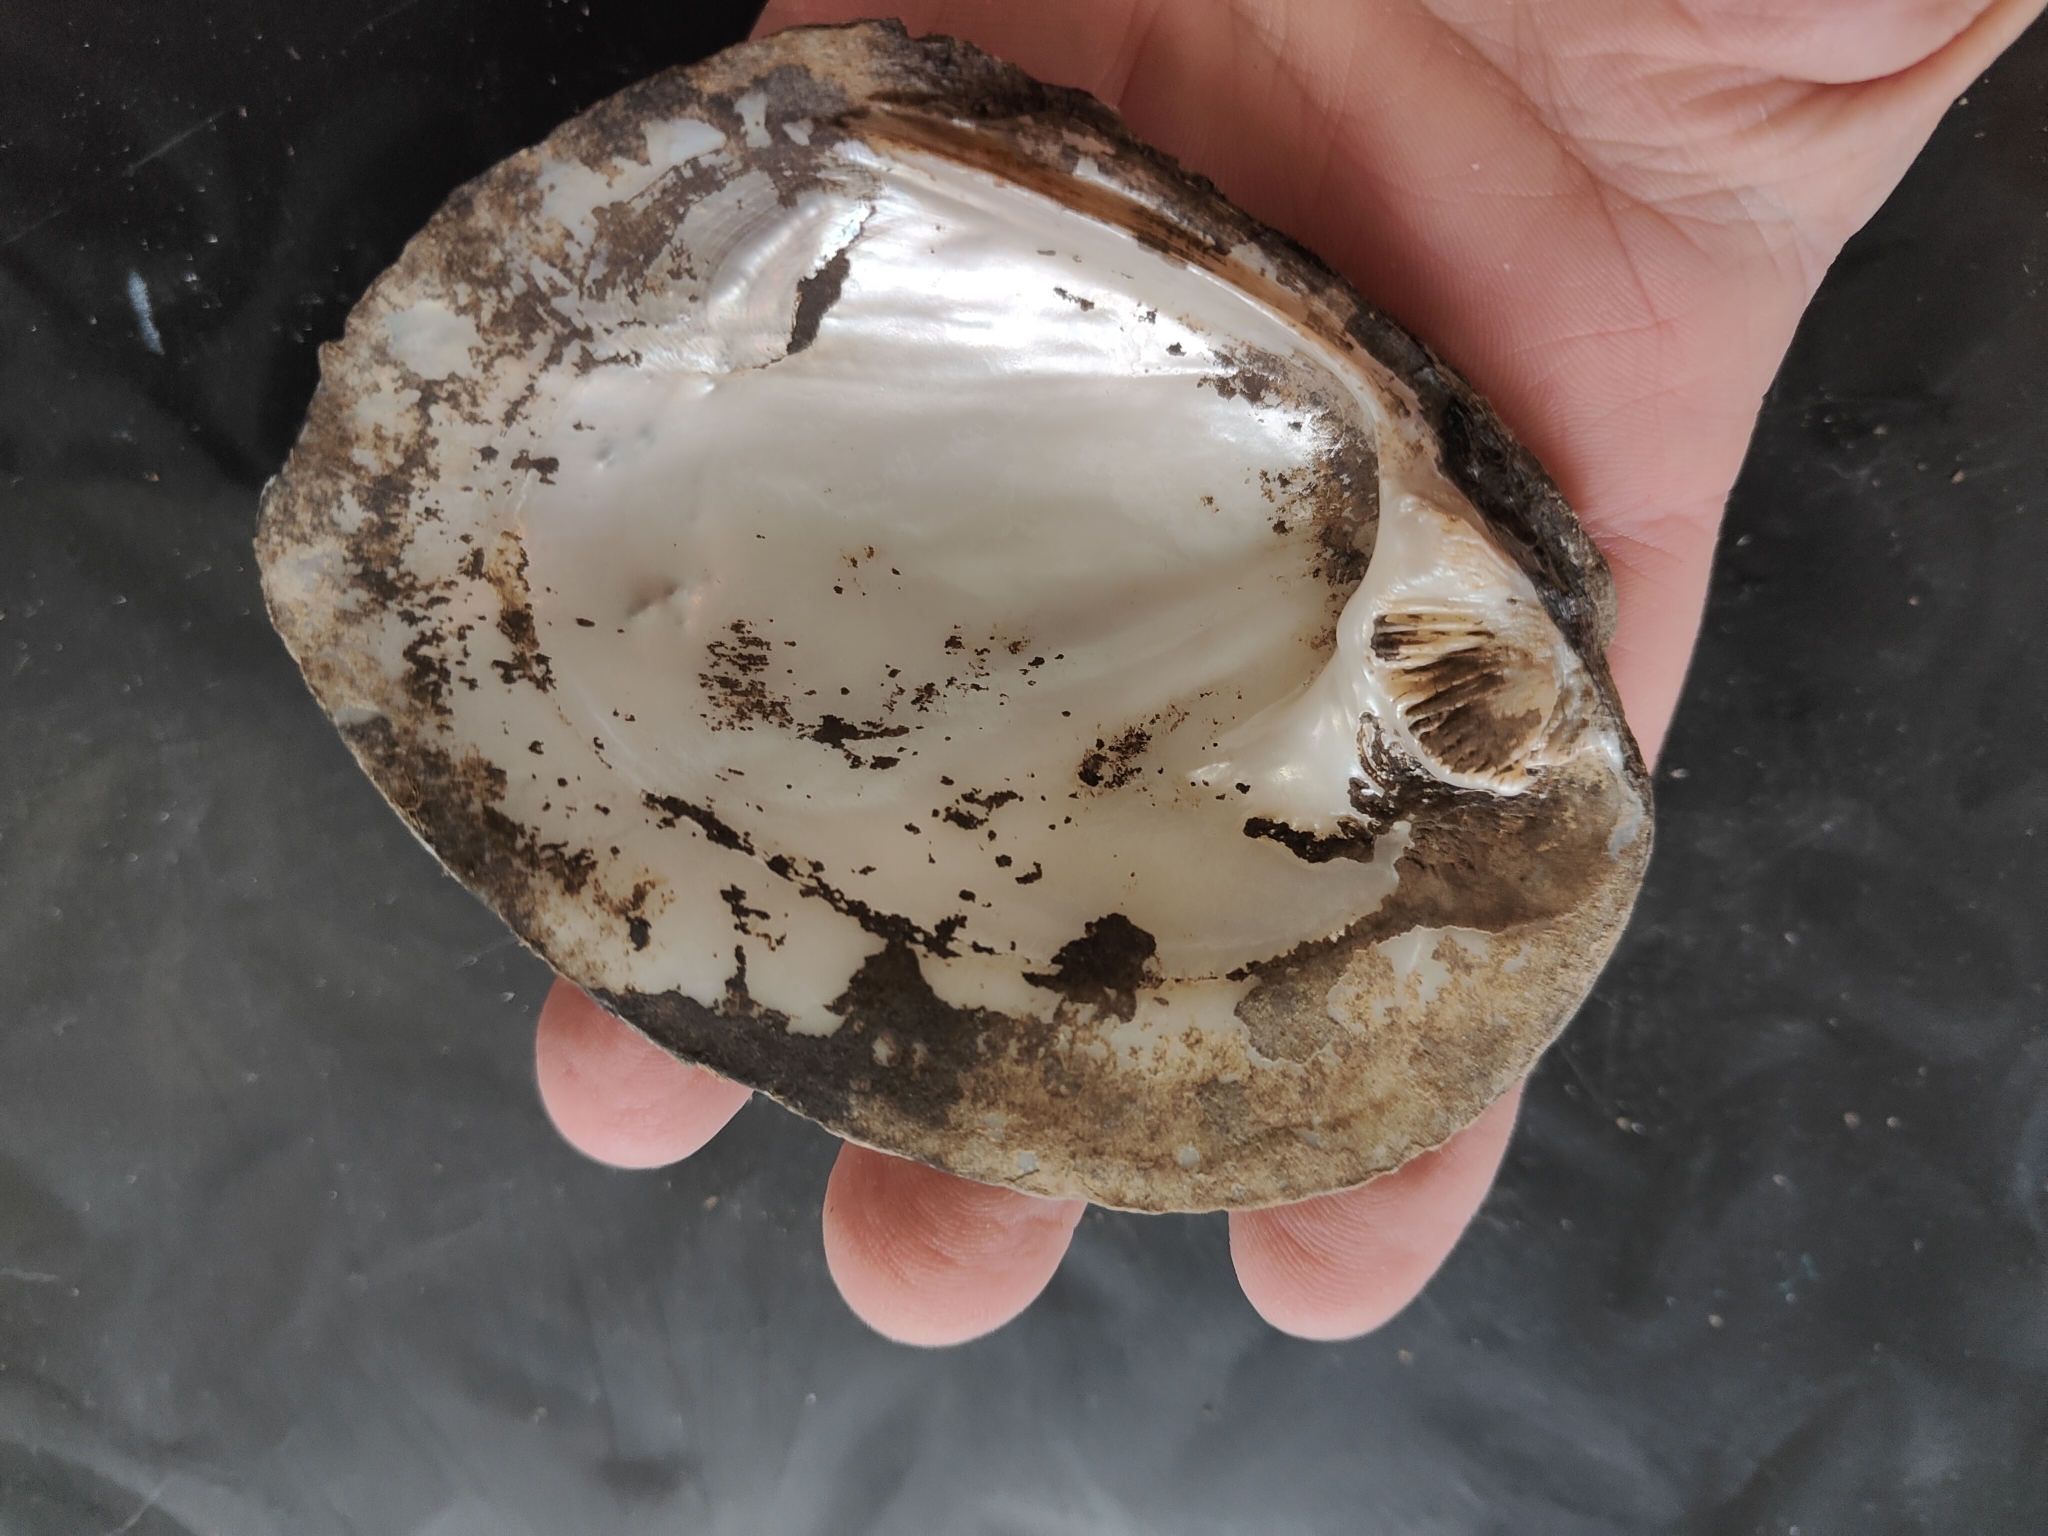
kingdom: Animalia
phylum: Mollusca
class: Bivalvia
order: Unionida
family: Unionidae
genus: Amblema
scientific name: Amblema plicata
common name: Threeridge
